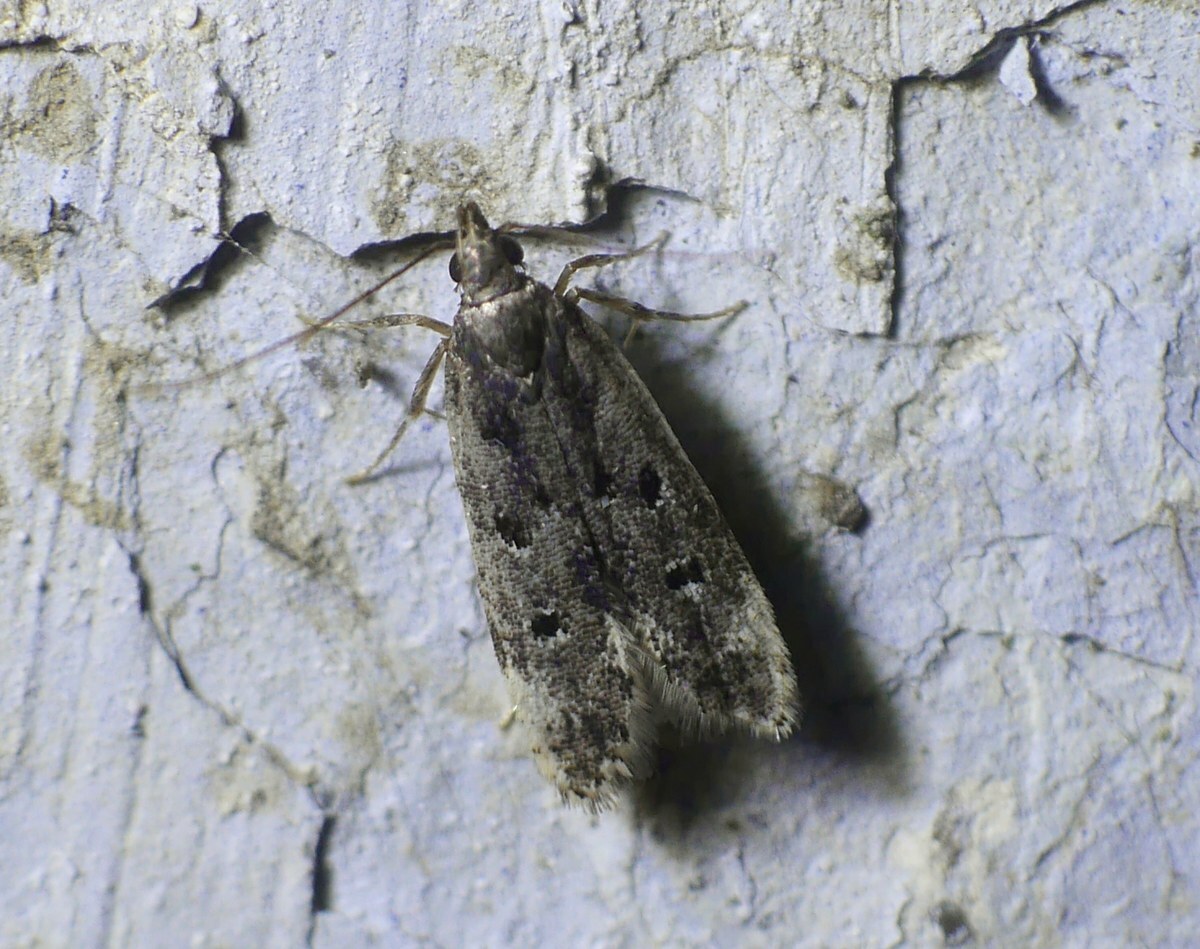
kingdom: Animalia
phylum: Arthropoda
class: Insecta
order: Lepidoptera
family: Gelechiidae
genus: Acanthophila
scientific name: Acanthophila alacella
